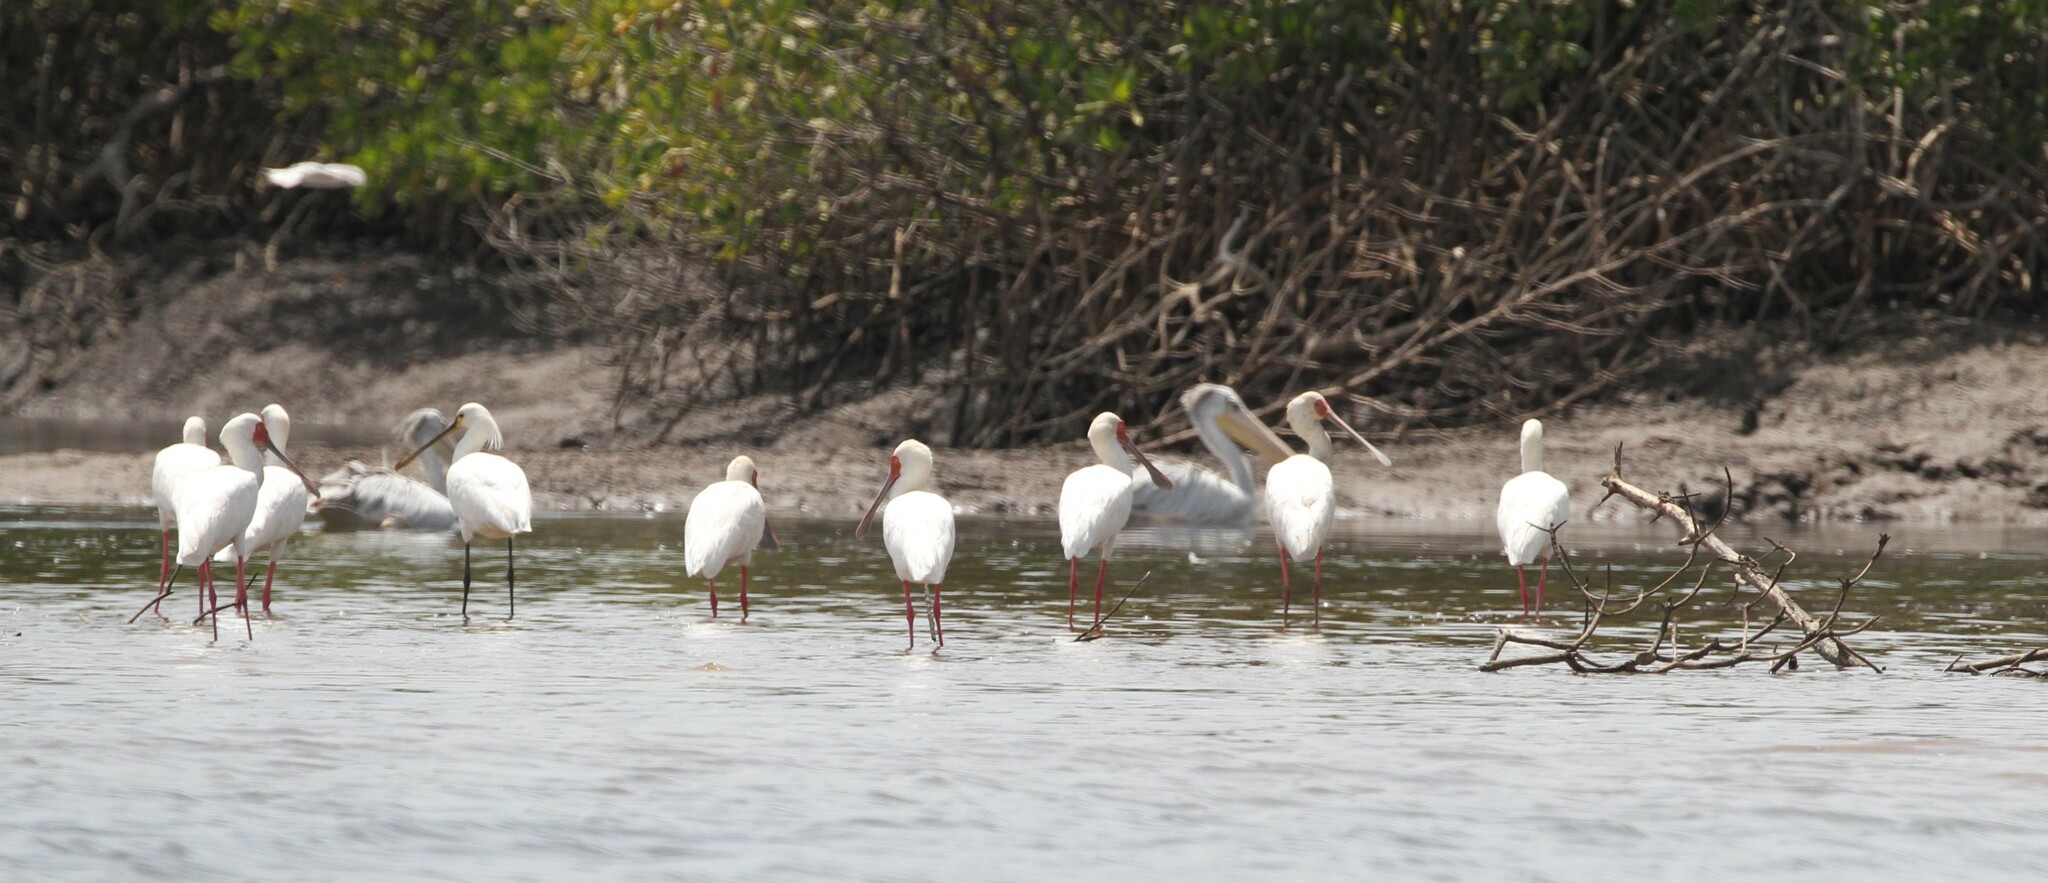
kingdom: Animalia
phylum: Chordata
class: Aves
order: Pelecaniformes
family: Threskiornithidae
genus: Platalea
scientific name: Platalea alba
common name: African spoonbill
